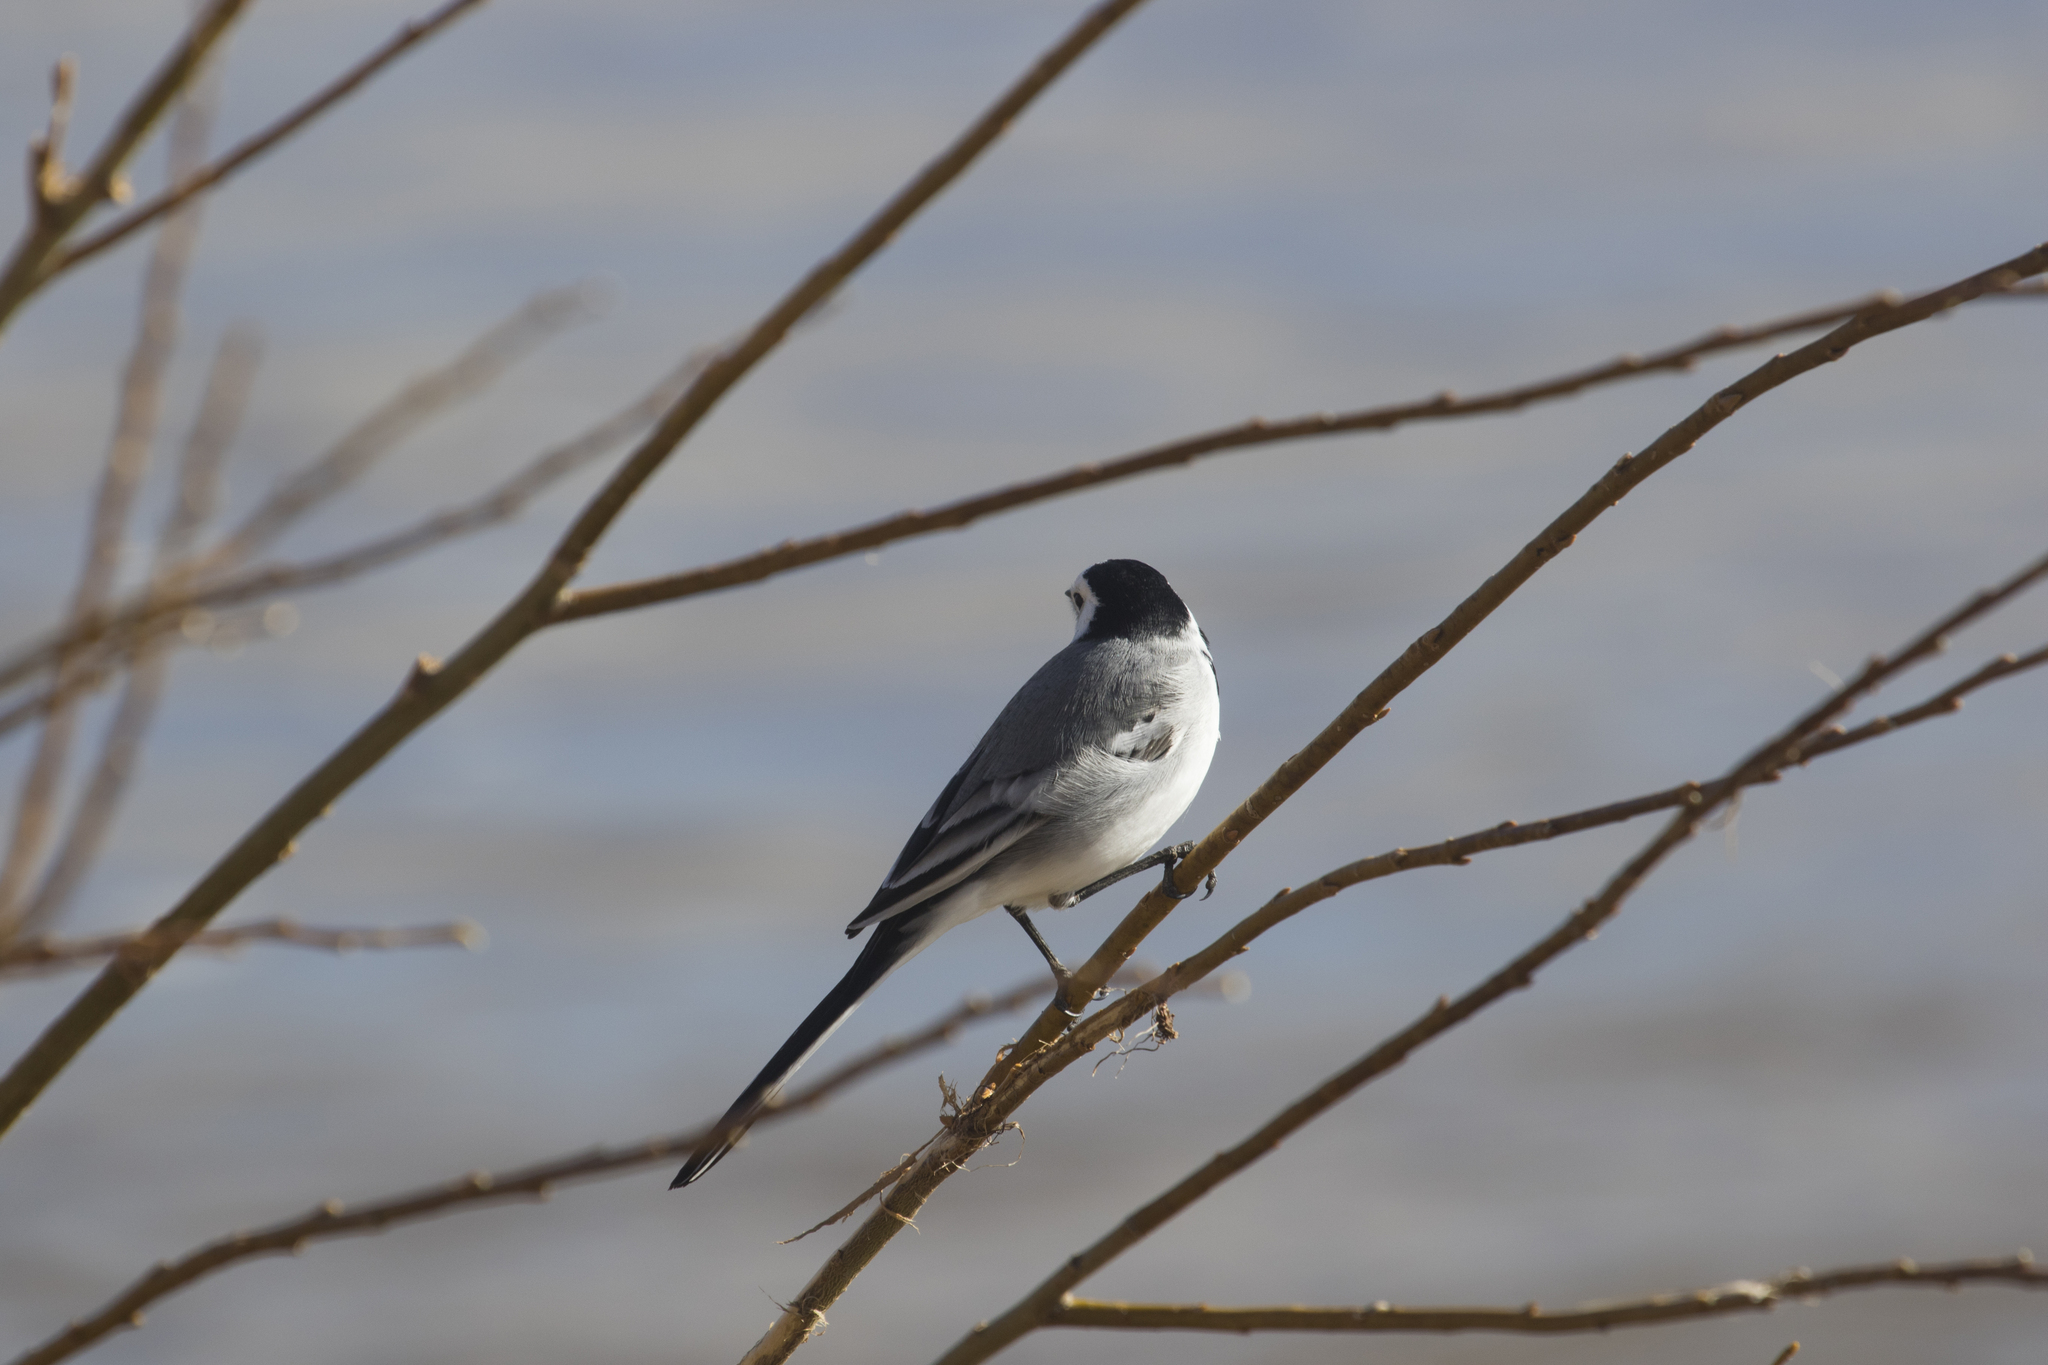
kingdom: Animalia
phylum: Chordata
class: Aves
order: Passeriformes
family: Motacillidae
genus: Motacilla
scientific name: Motacilla alba
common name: White wagtail
